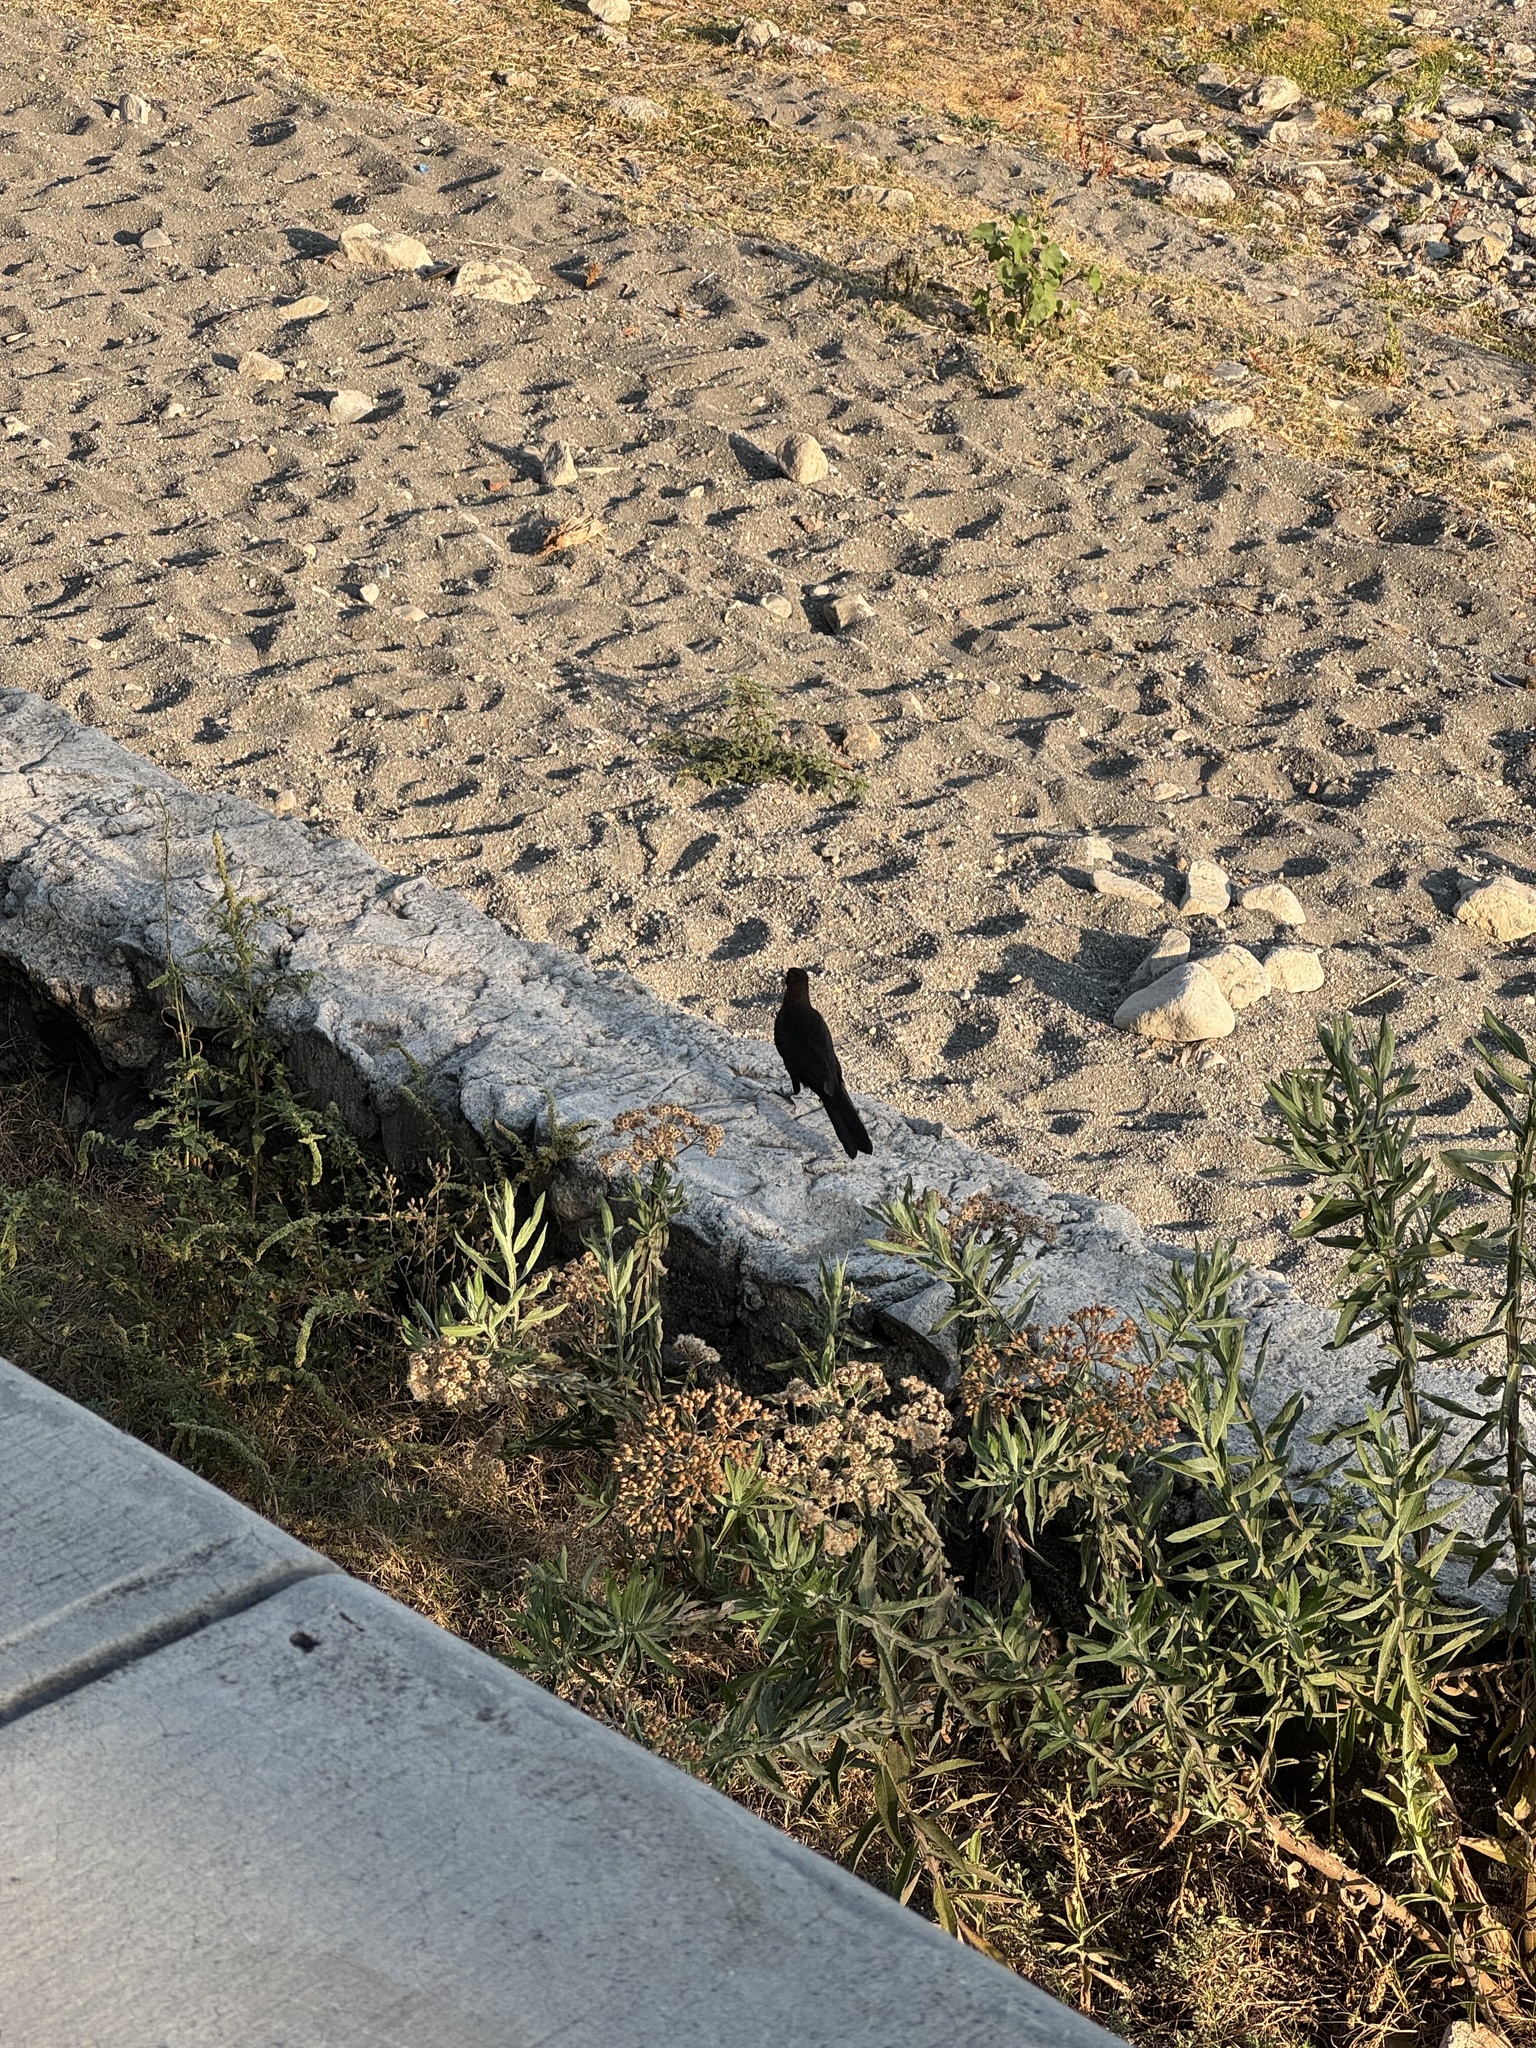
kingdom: Animalia
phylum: Chordata
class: Aves
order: Passeriformes
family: Icteridae
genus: Quiscalus
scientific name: Quiscalus mexicanus
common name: Great-tailed grackle
